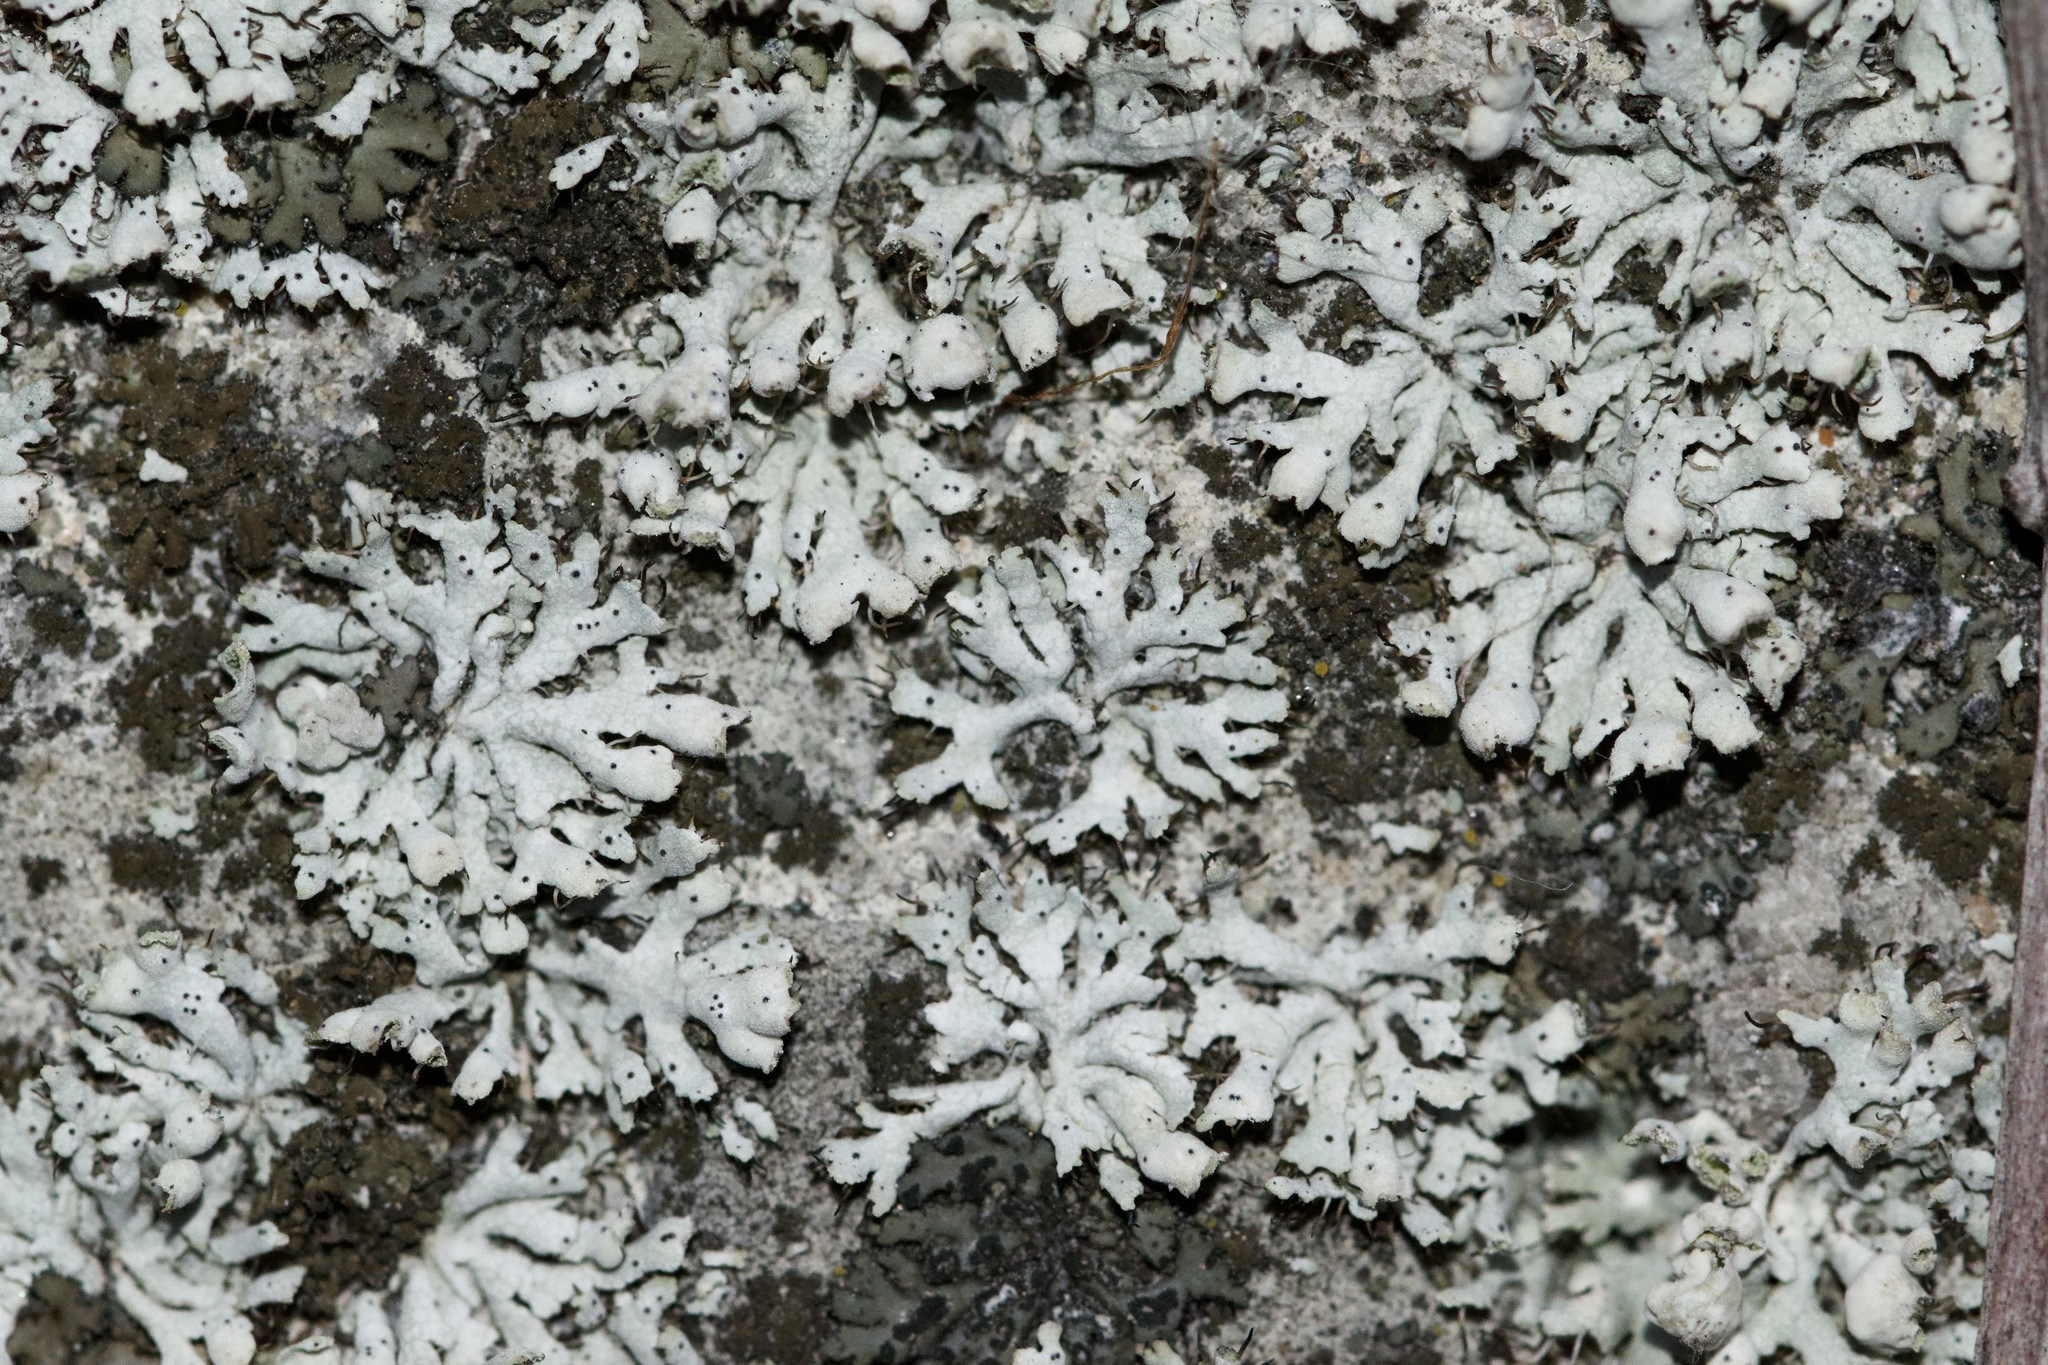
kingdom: Fungi
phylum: Ascomycota
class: Lecanoromycetes
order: Caliciales
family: Physciaceae
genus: Physcia
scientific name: Physcia adscendens
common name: Hooded rosette lichen
